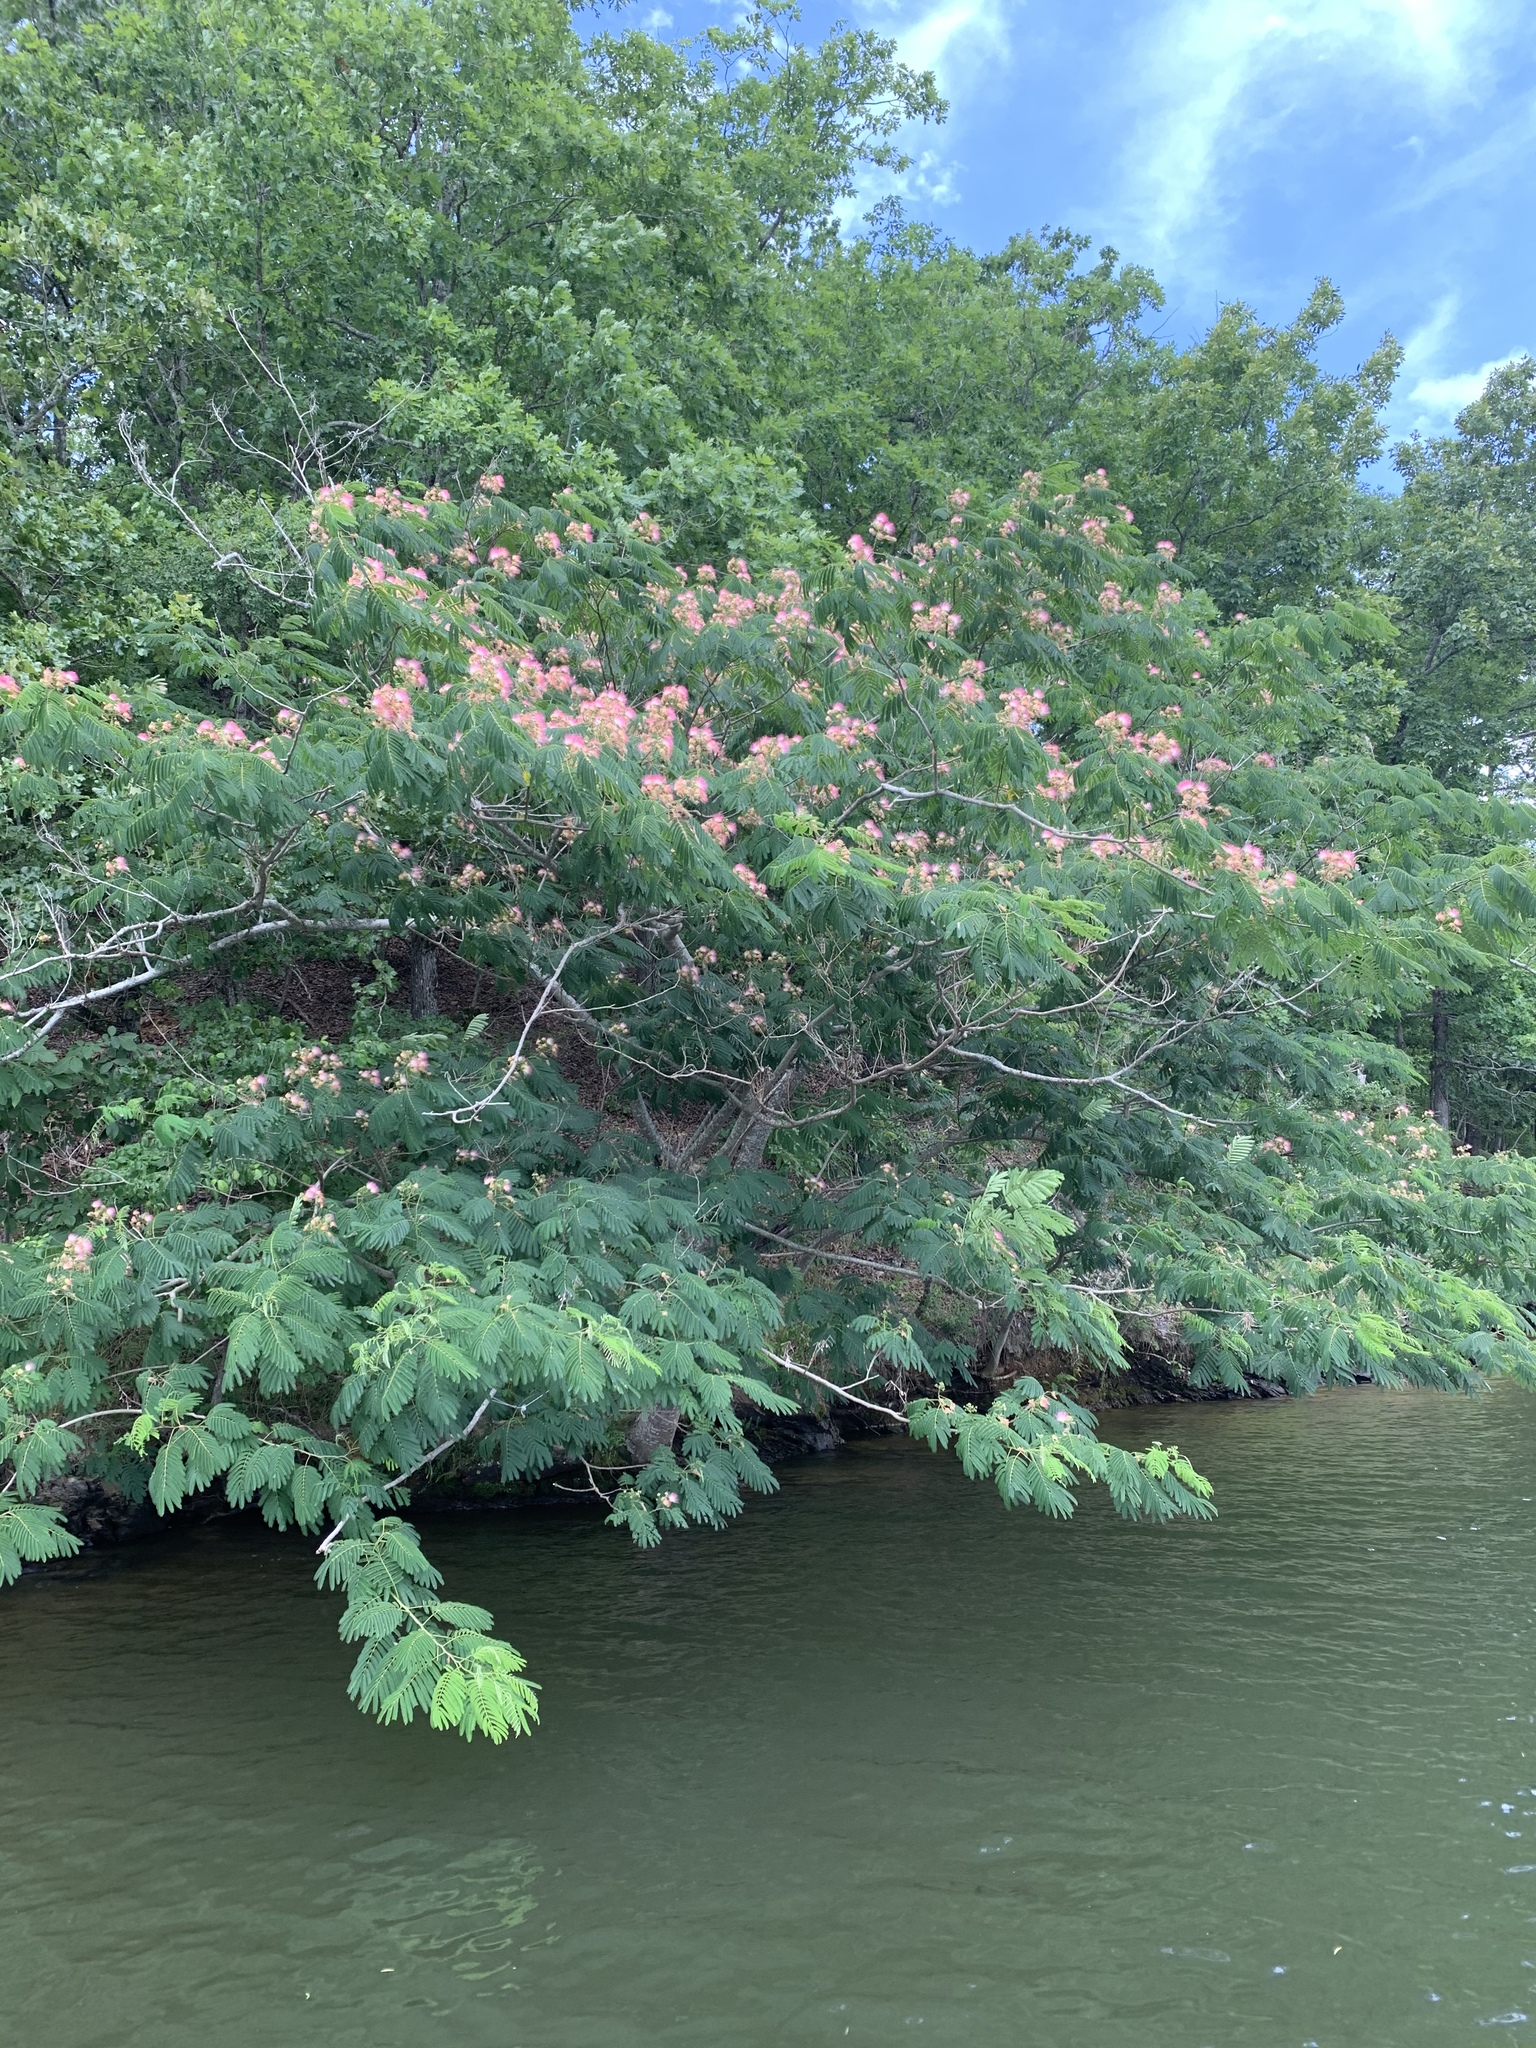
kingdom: Plantae
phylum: Tracheophyta
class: Magnoliopsida
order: Fabales
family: Fabaceae
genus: Albizia
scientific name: Albizia julibrissin
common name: Silktree
